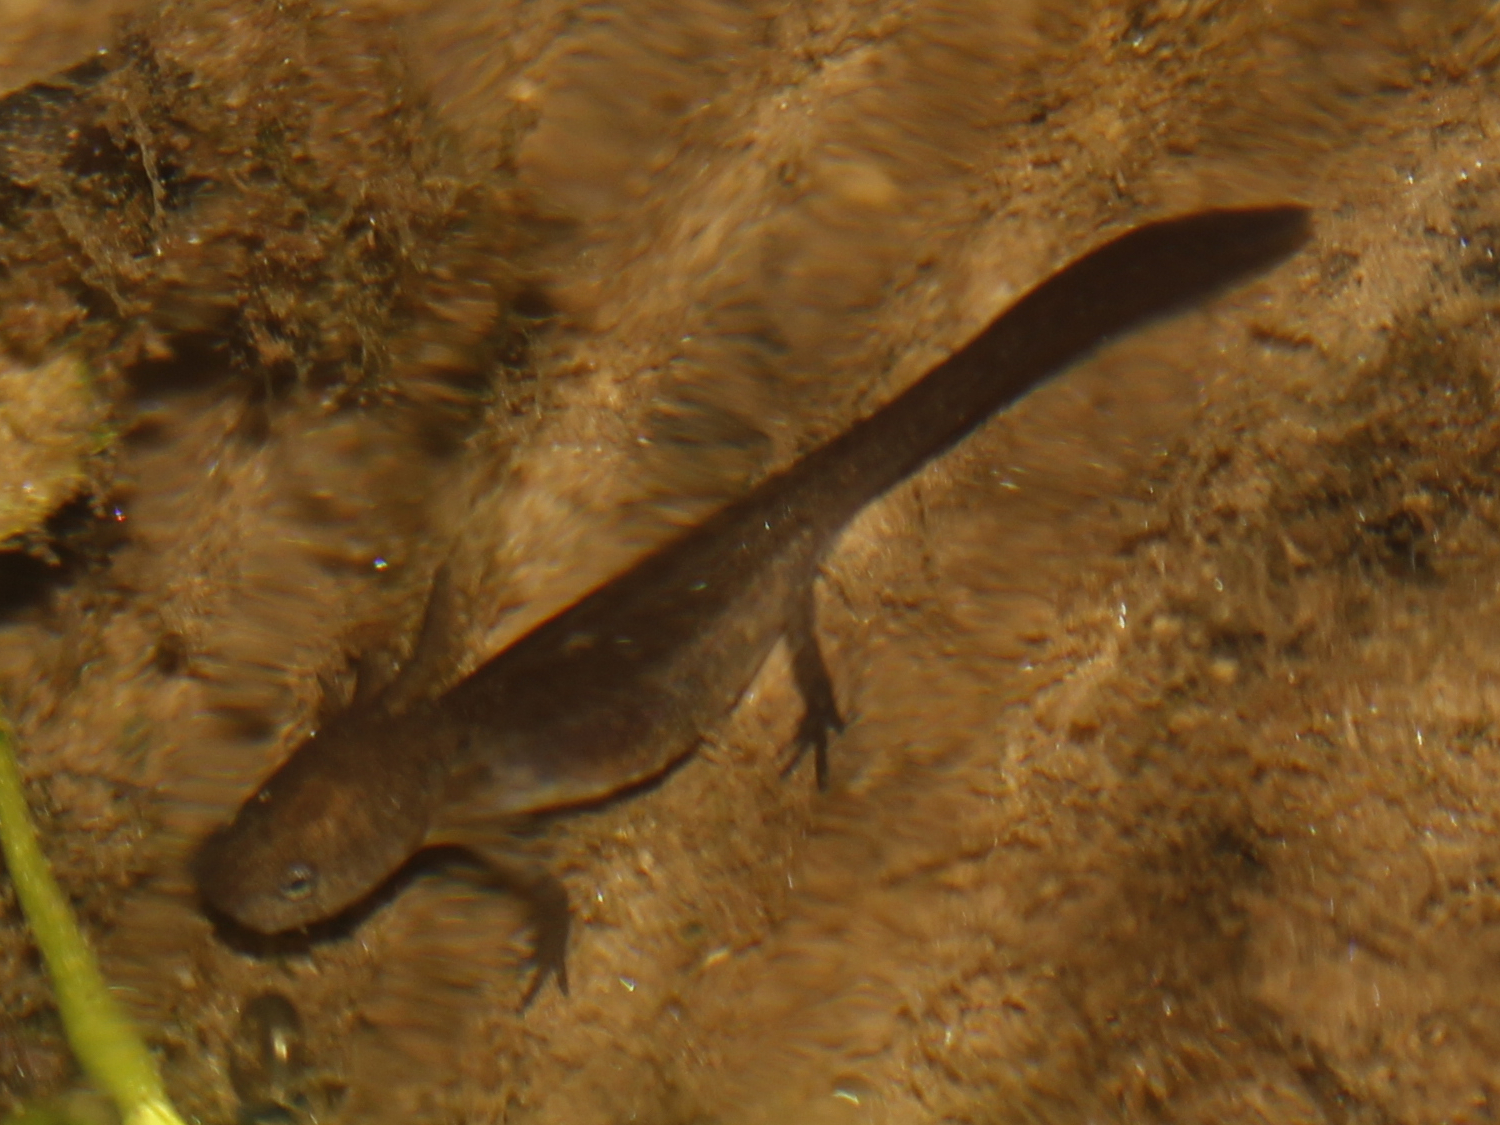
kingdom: Animalia
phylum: Chordata
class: Amphibia
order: Caudata
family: Ambystomatidae
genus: Ambystoma
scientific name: Ambystoma maculatum
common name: Spotted salamander
